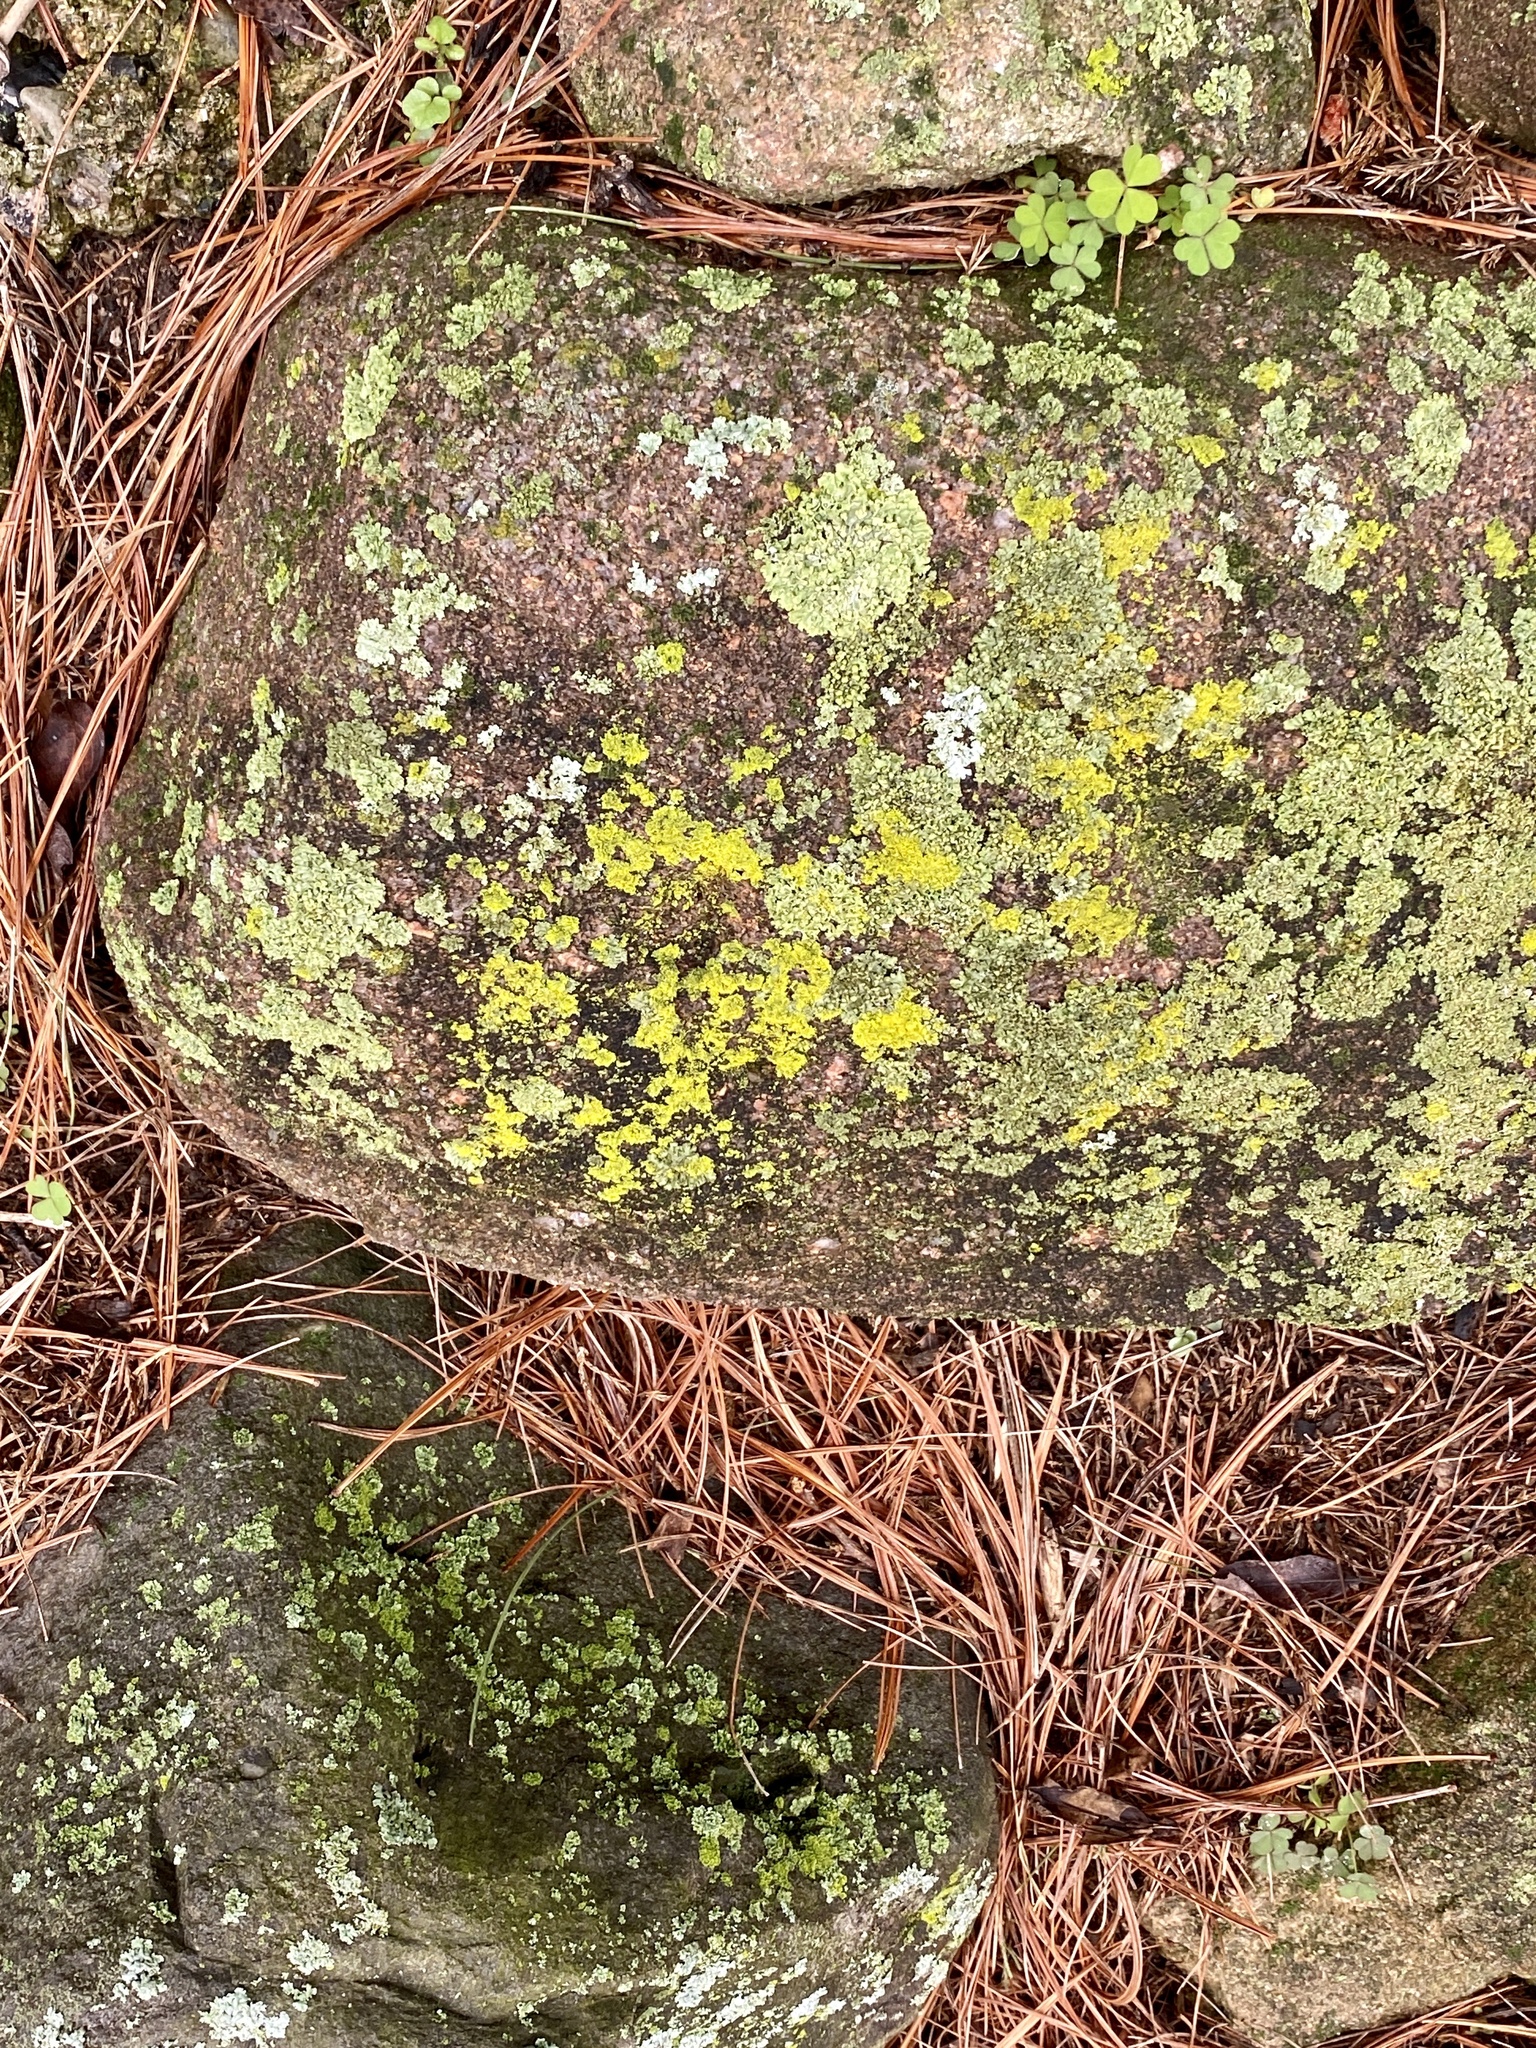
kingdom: Fungi
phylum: Ascomycota
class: Candelariomycetes
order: Candelariales
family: Candelariaceae
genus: Candelaria
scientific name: Candelaria concolor
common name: Candleflame lichen
